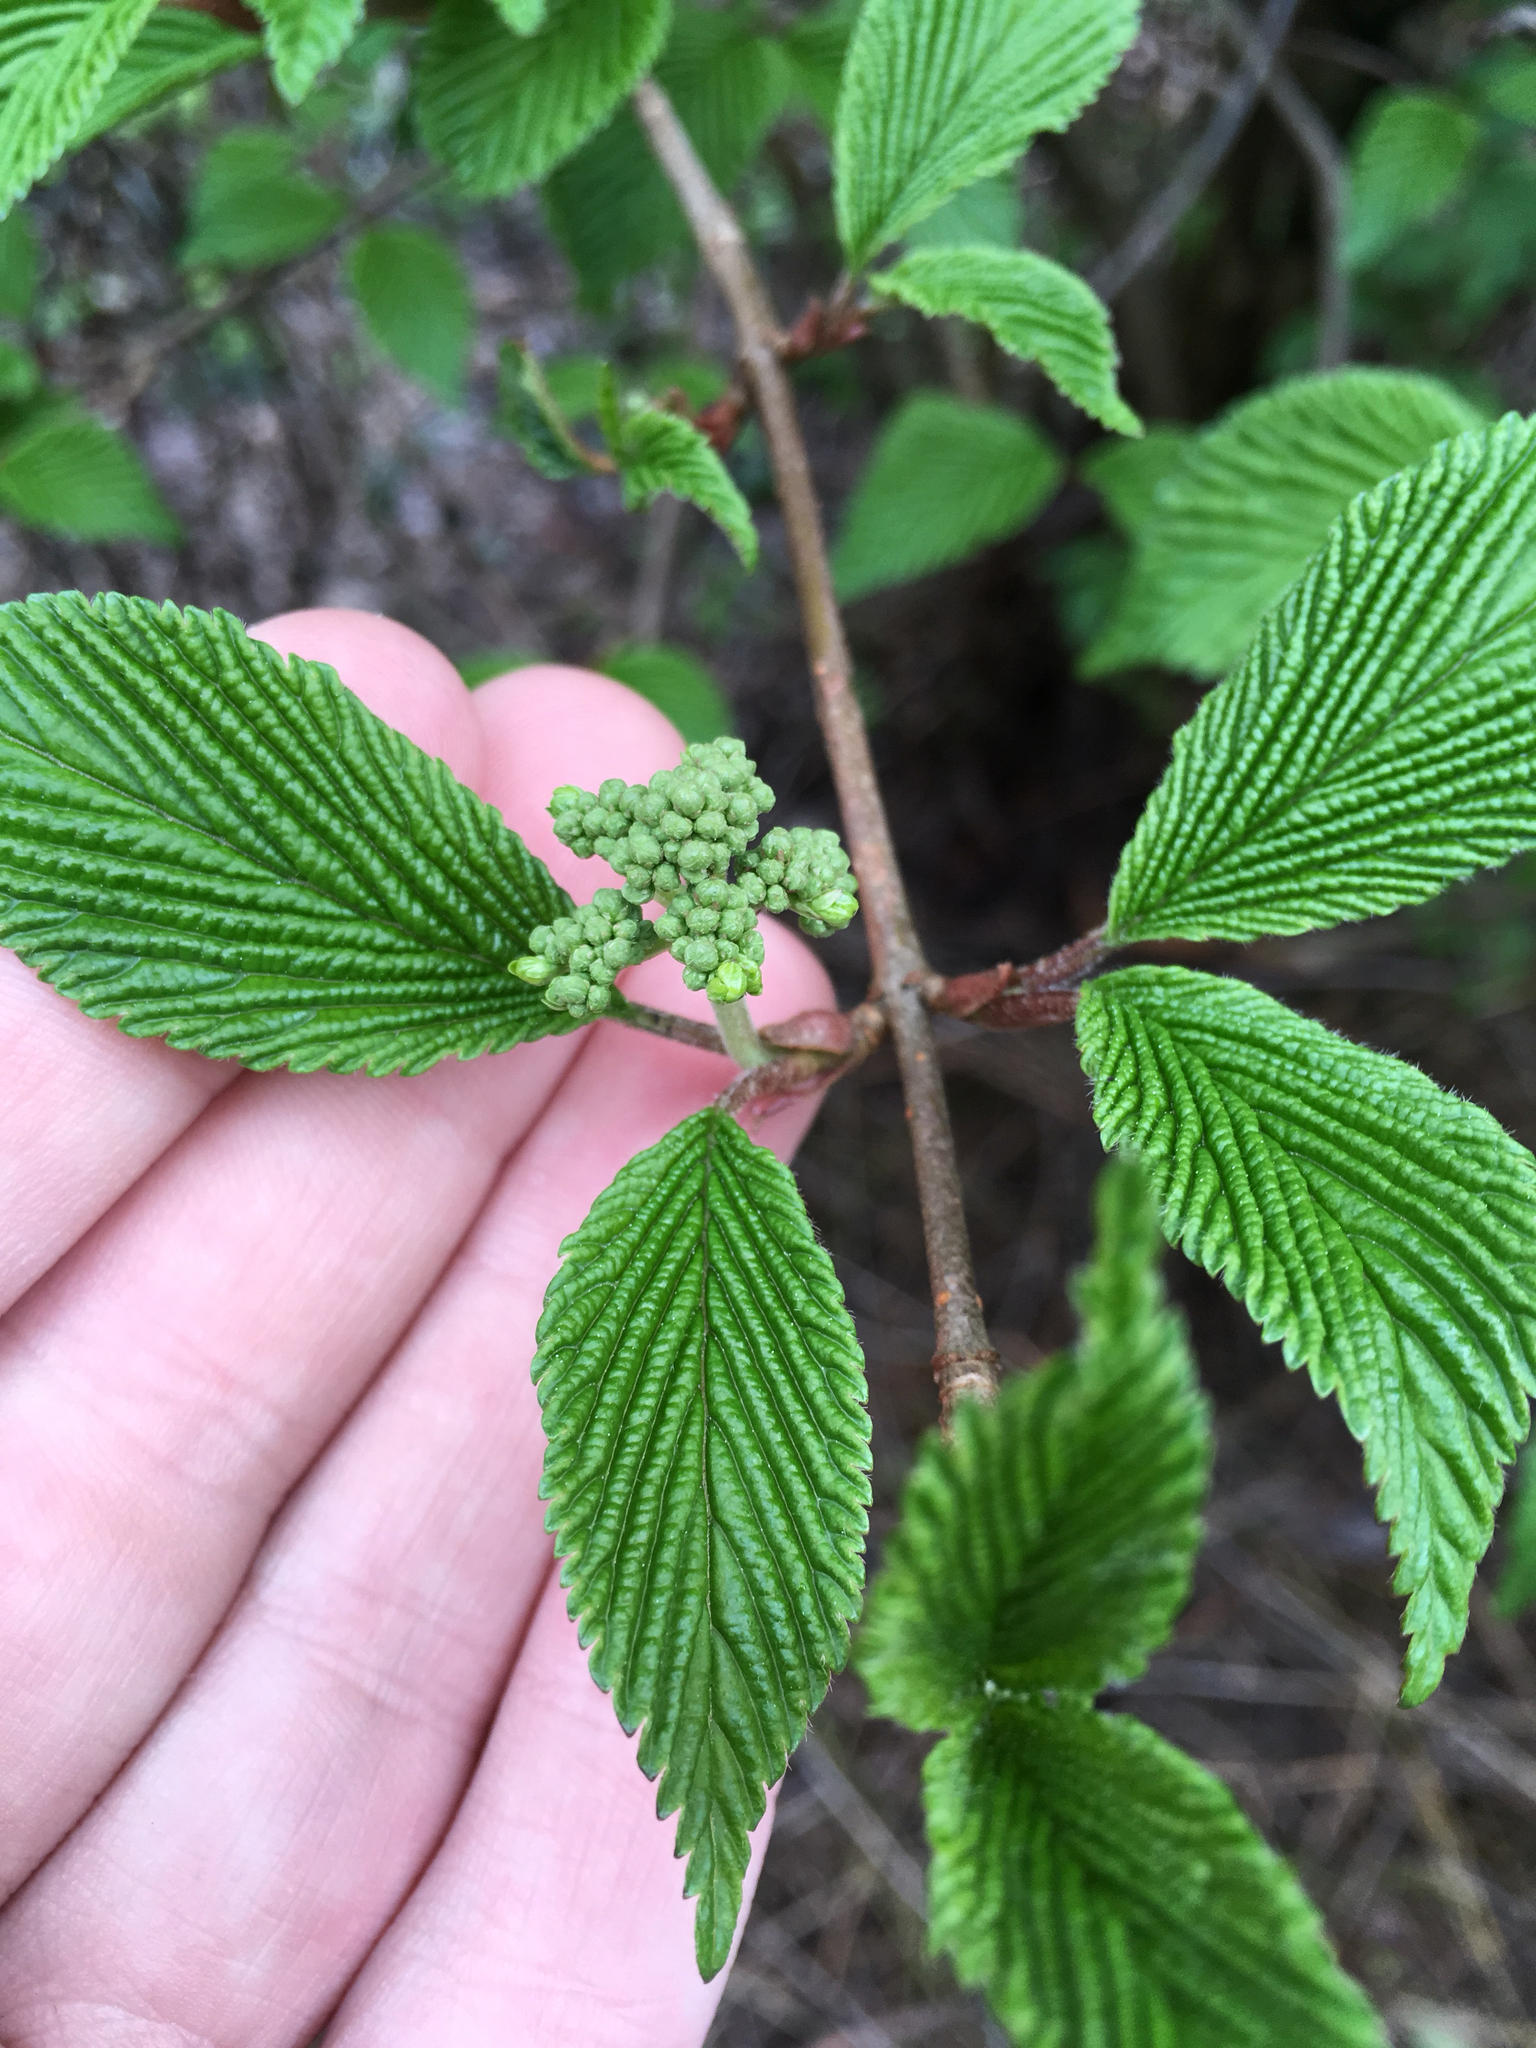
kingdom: Plantae
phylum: Tracheophyta
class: Magnoliopsida
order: Dipsacales
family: Viburnaceae
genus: Viburnum
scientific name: Viburnum plicatum
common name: Japanese snowball
